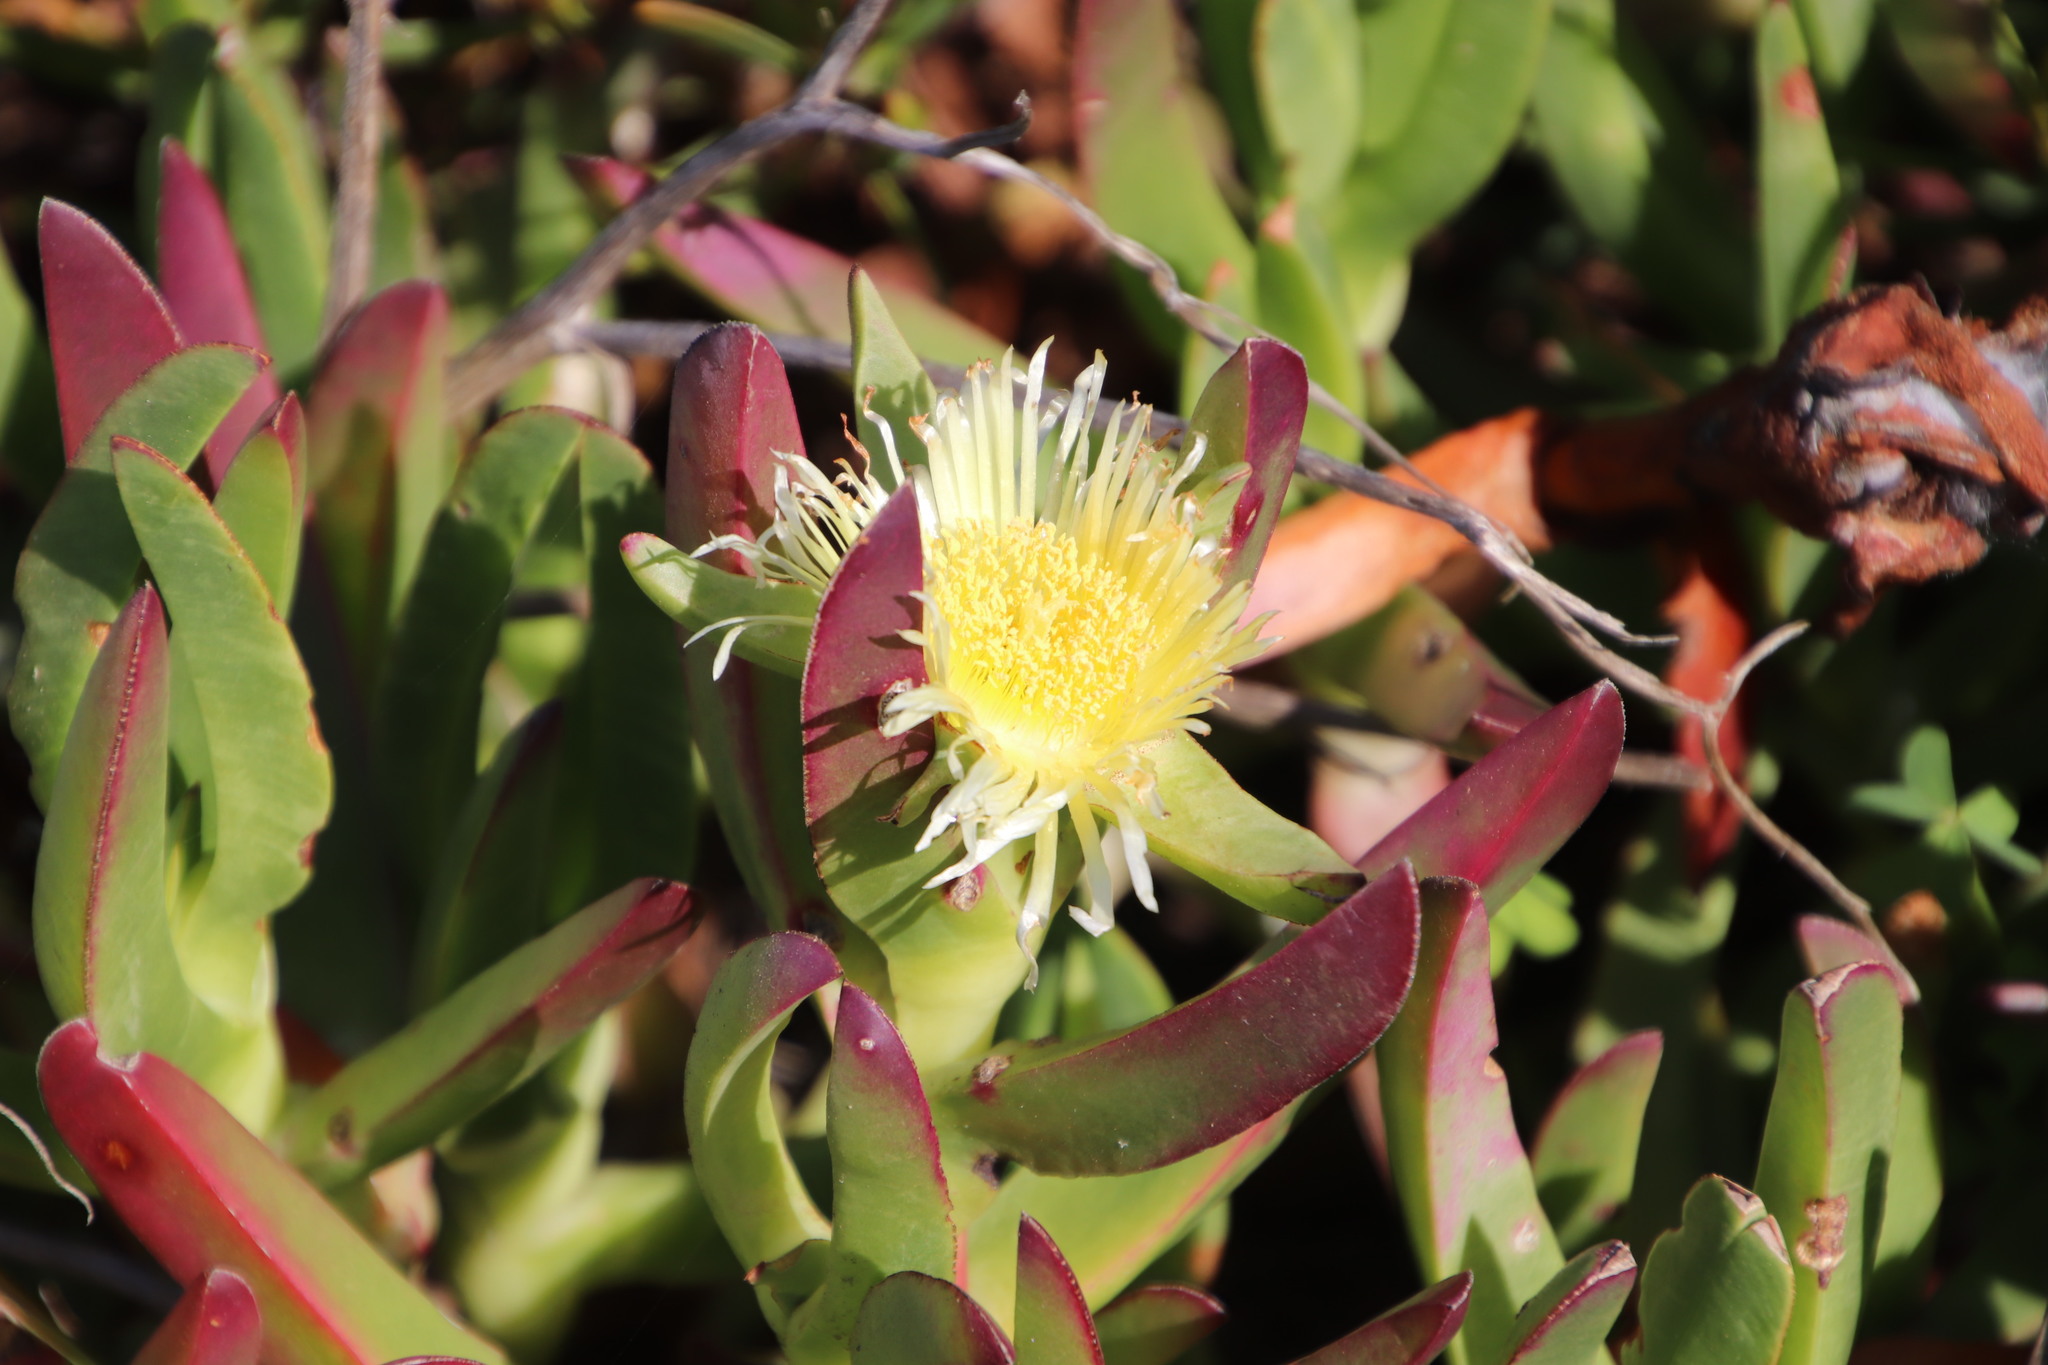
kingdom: Plantae
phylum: Tracheophyta
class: Magnoliopsida
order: Caryophyllales
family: Aizoaceae
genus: Carpobrotus
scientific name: Carpobrotus edulis
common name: Hottentot-fig
